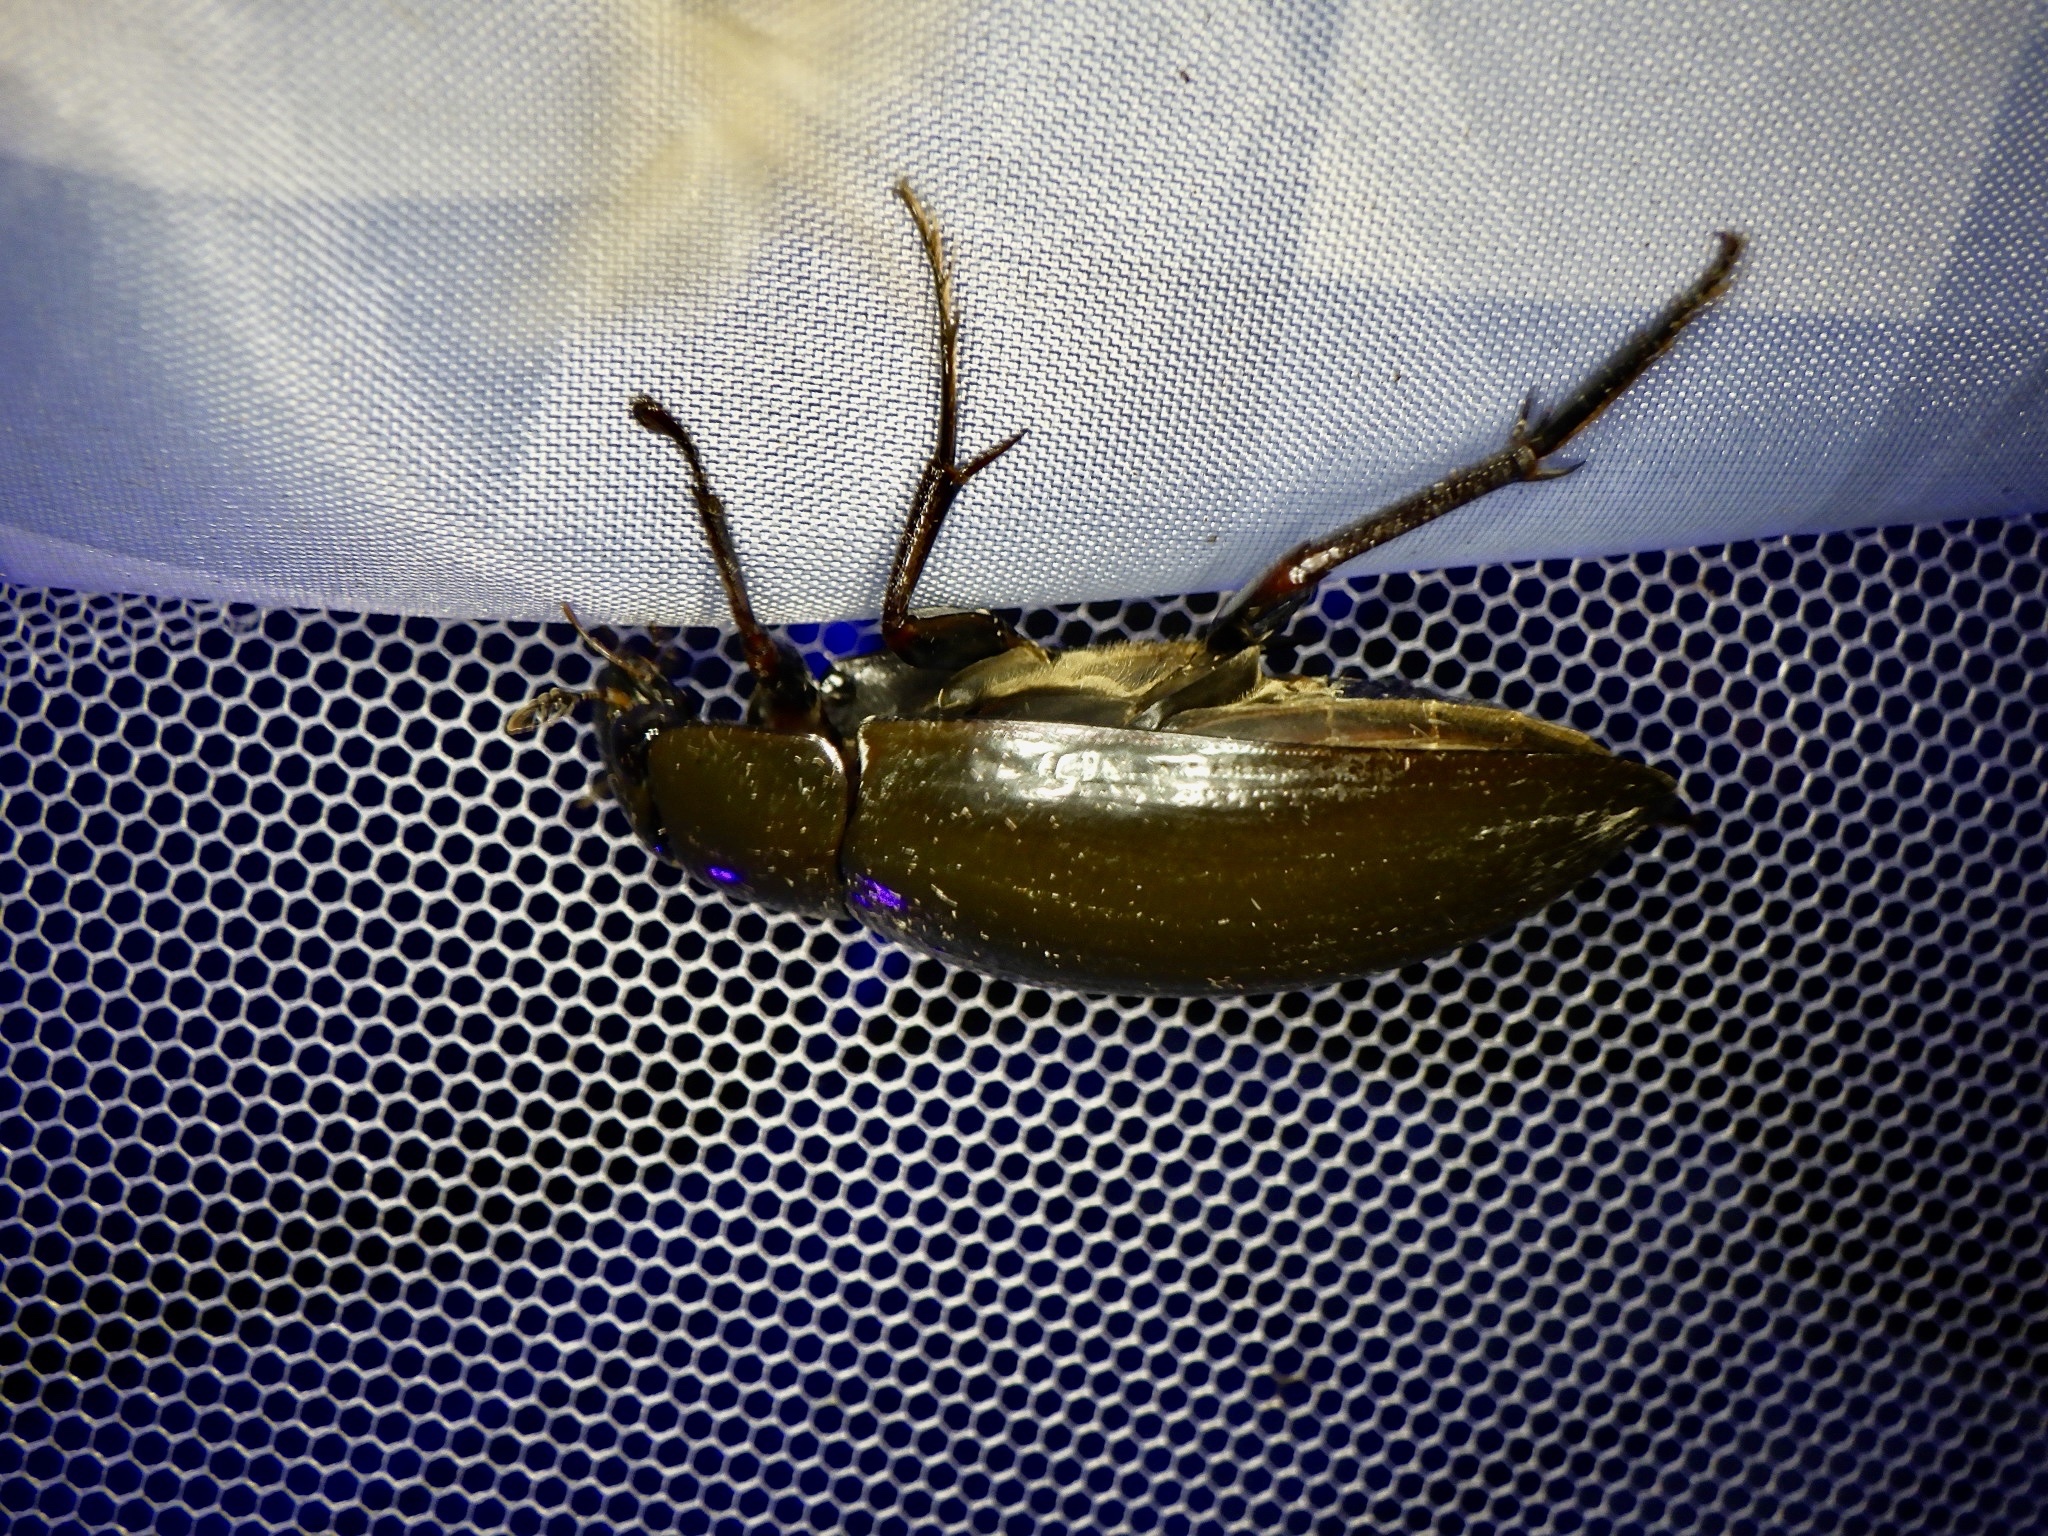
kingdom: Animalia
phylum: Arthropoda
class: Insecta
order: Coleoptera
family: Hydrophilidae
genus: Hydrophilus
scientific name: Hydrophilus acuminatus
